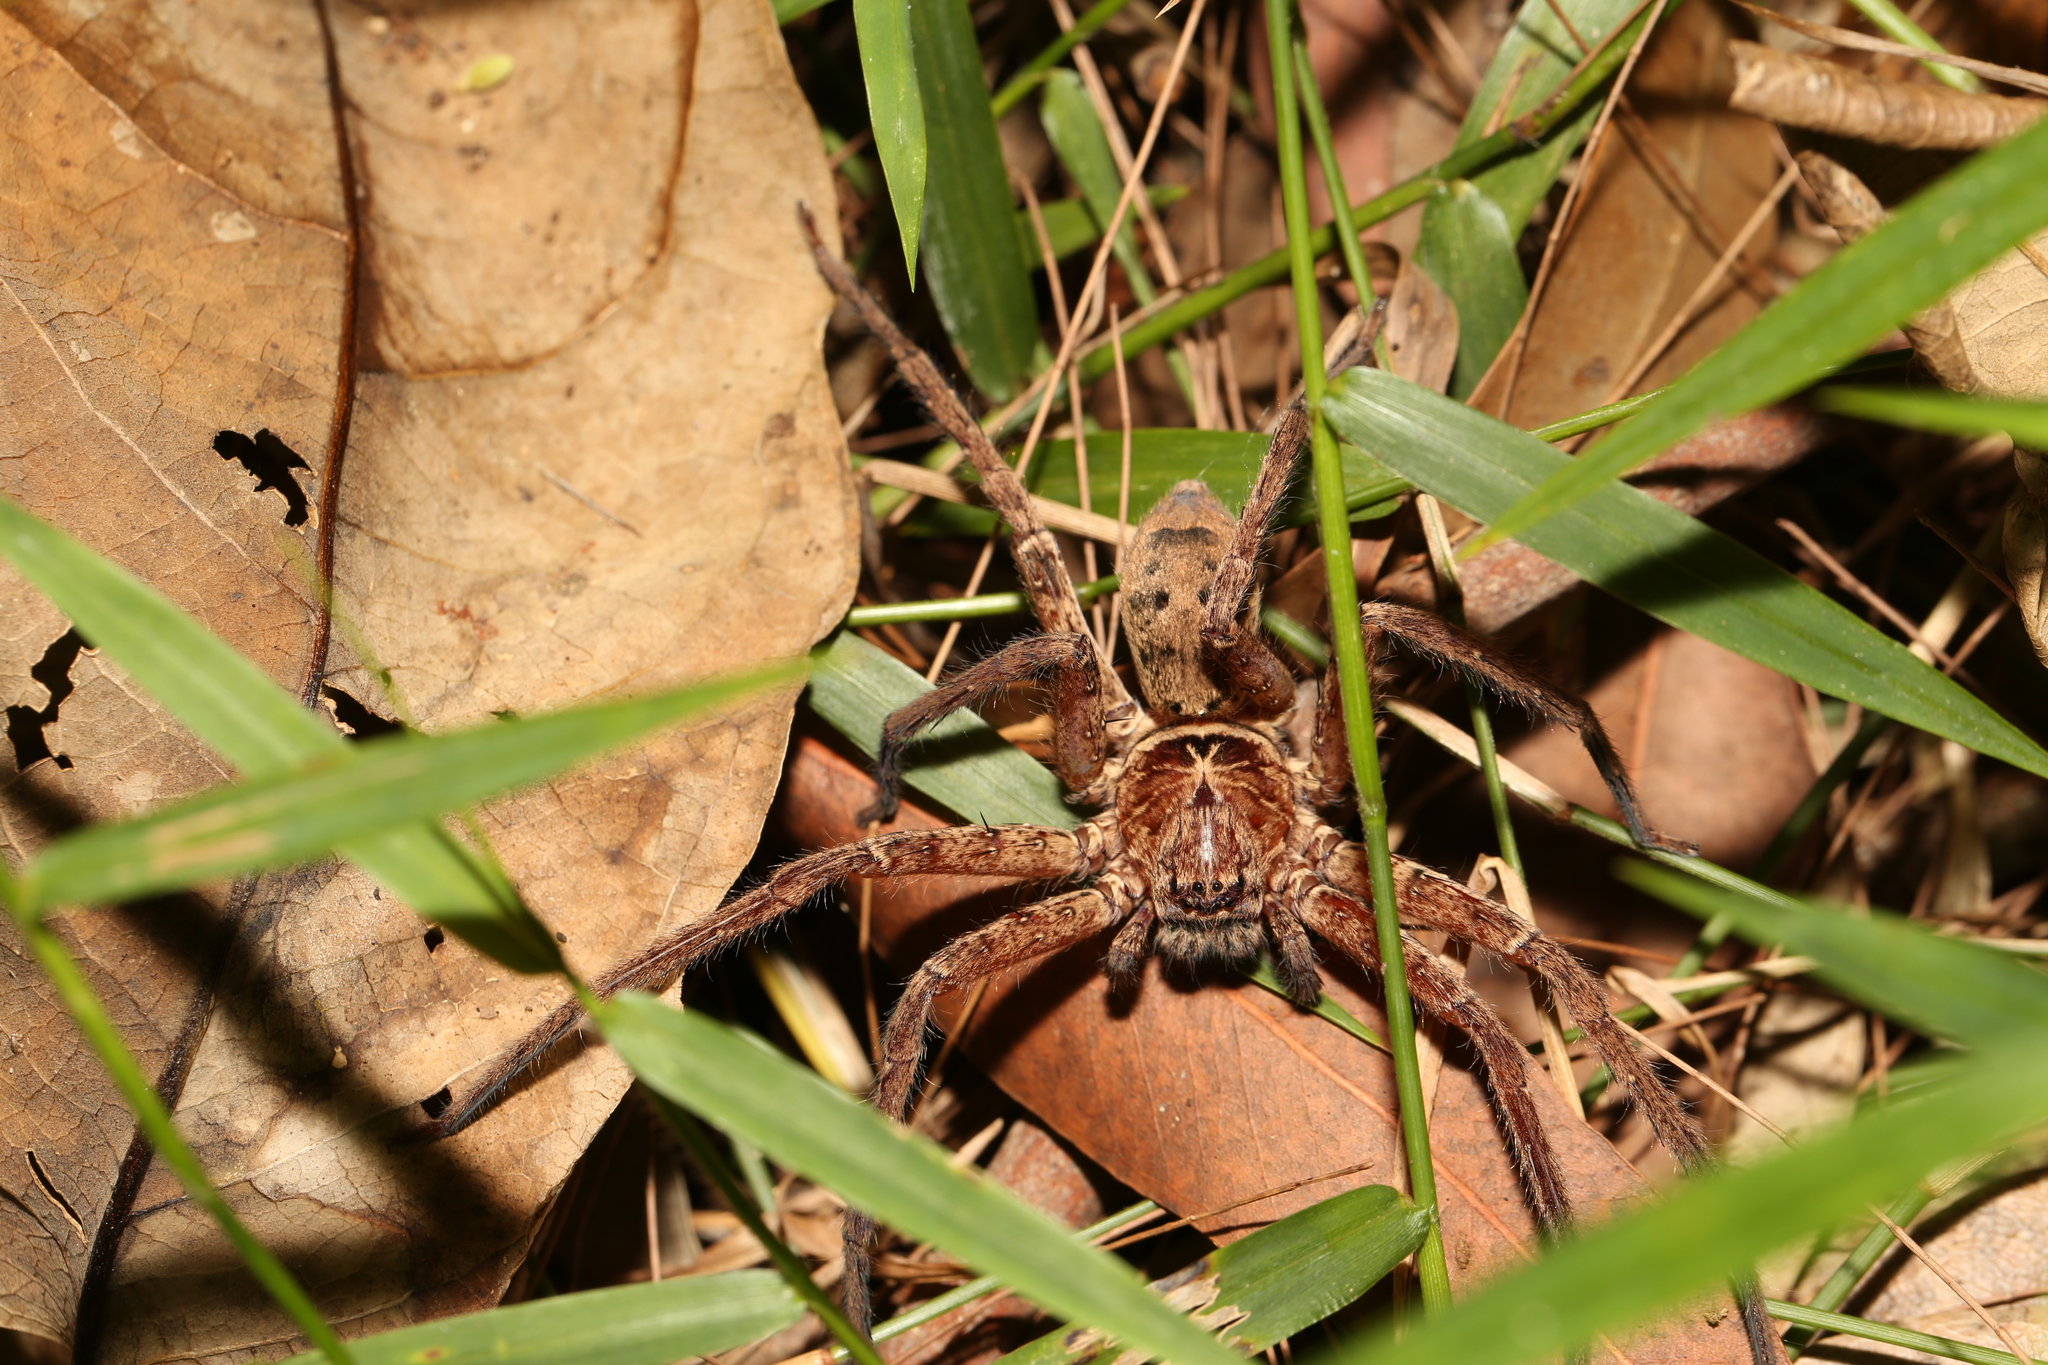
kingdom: Animalia
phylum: Arthropoda
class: Arachnida
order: Araneae
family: Sparassidae
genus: Heteropoda
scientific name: Heteropoda jugulans
